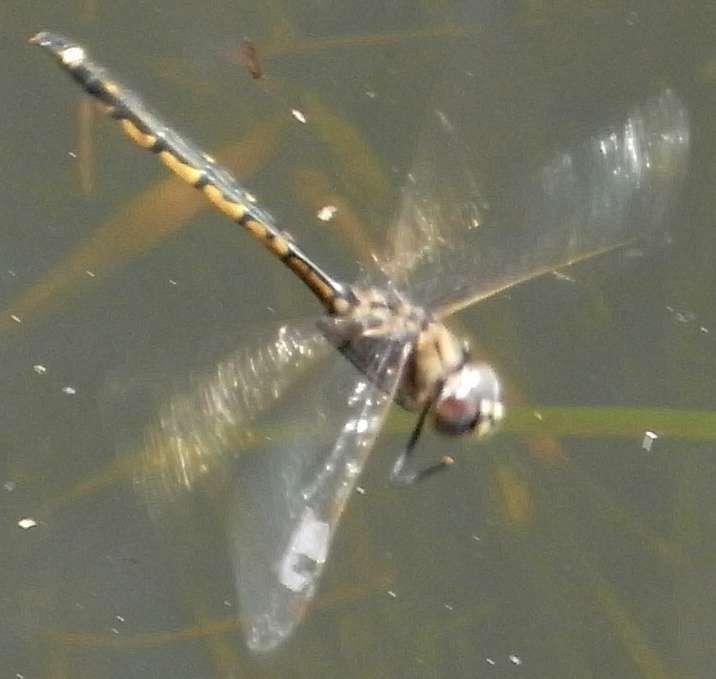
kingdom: Animalia
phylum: Arthropoda
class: Insecta
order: Odonata
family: Corduliidae
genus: Hemicordulia
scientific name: Hemicordulia tau
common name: Tau emerald
